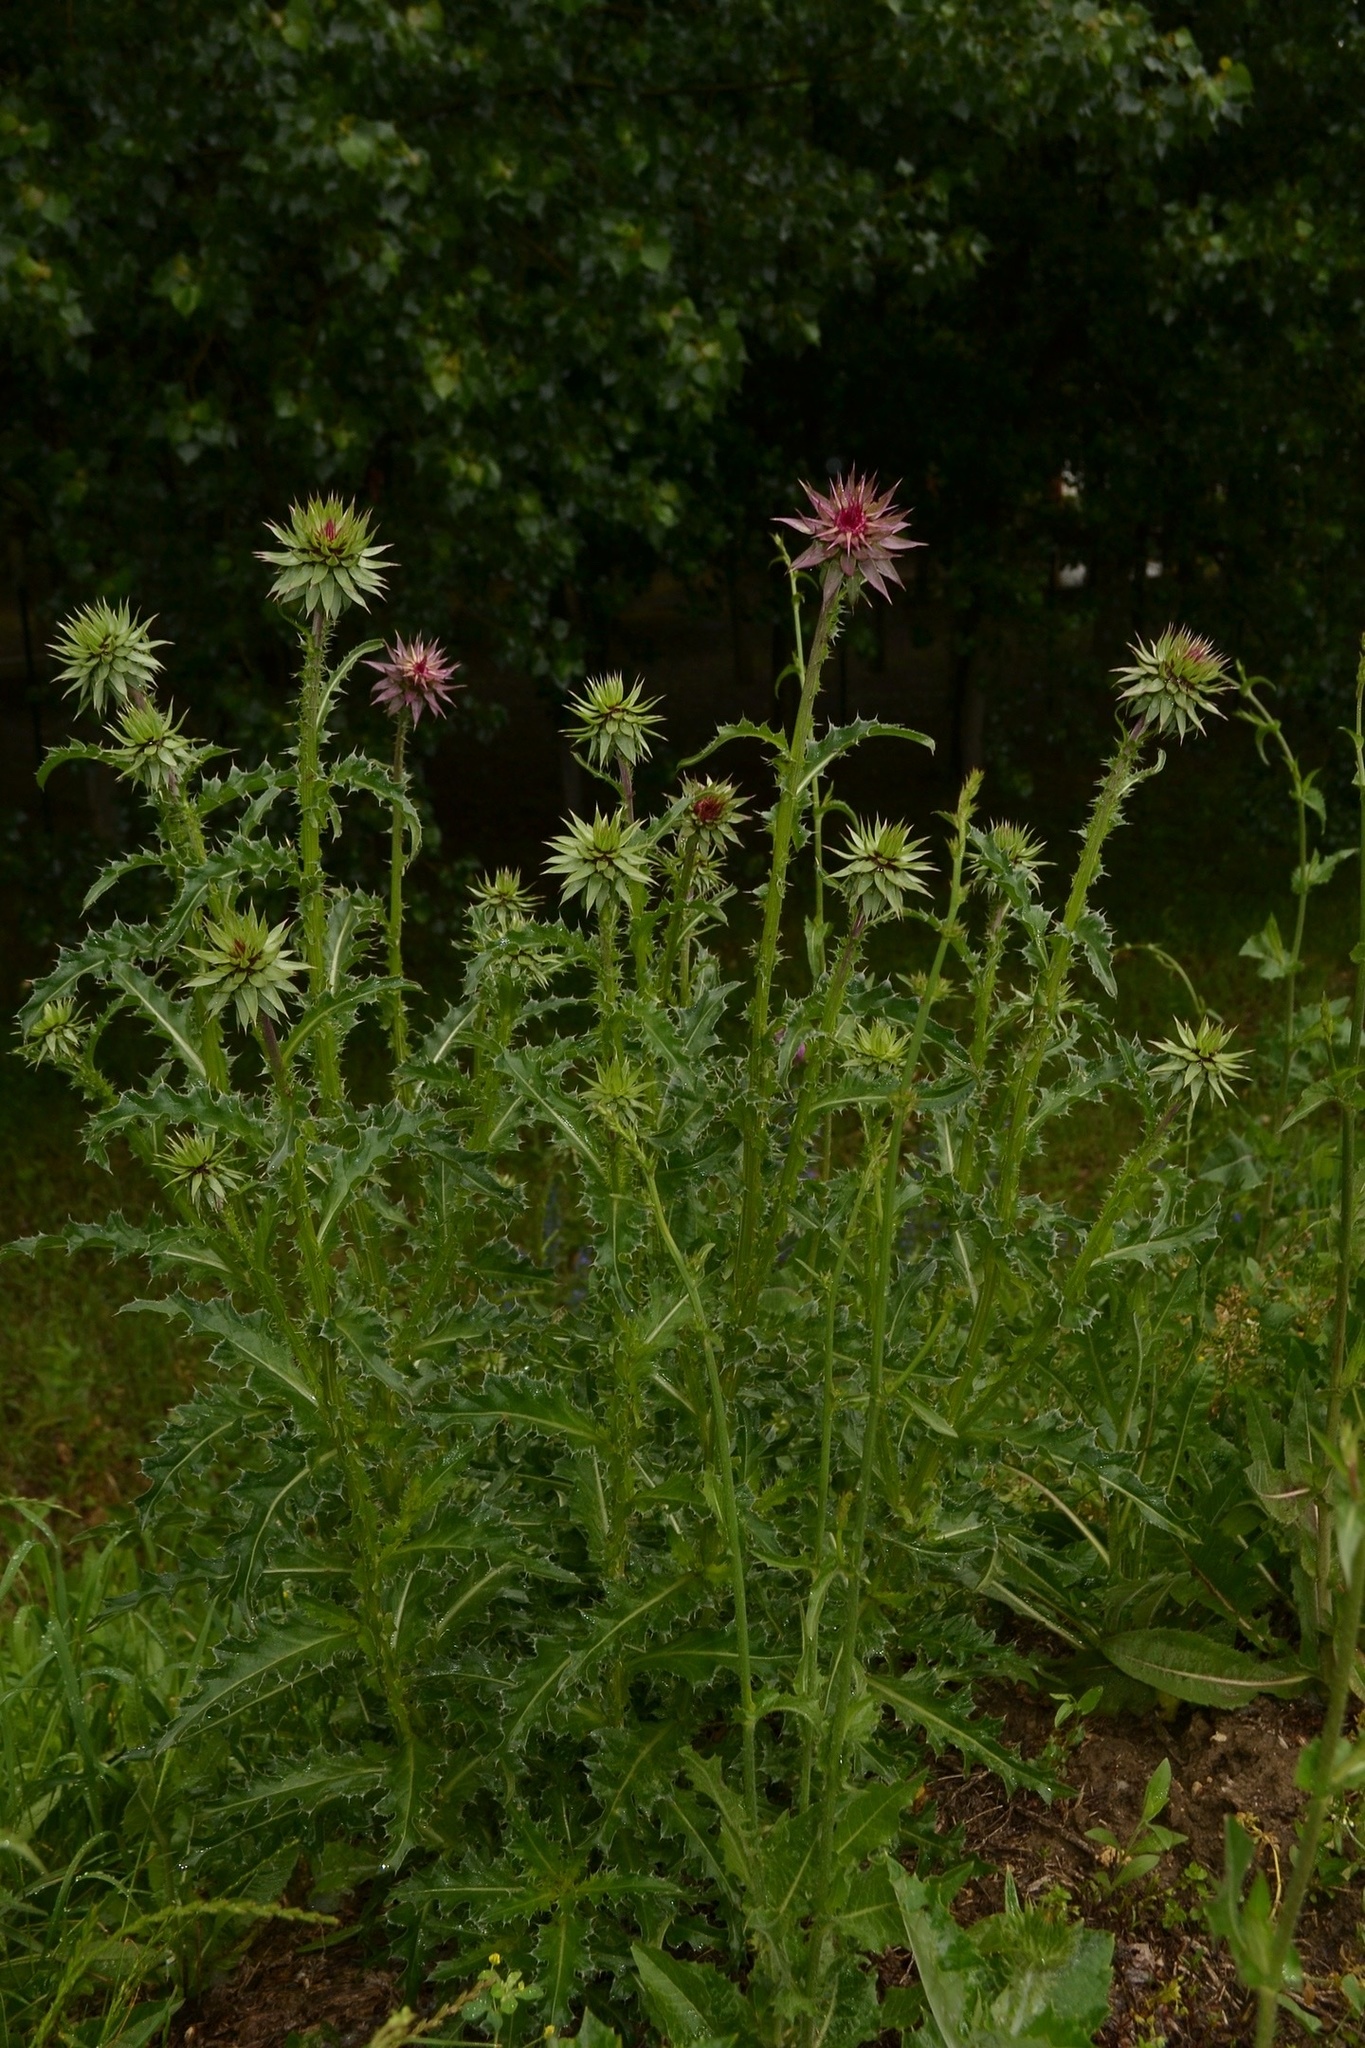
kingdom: Plantae
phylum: Tracheophyta
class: Magnoliopsida
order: Asterales
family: Asteraceae
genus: Carduus
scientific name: Carduus nutans
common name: Musk thistle
